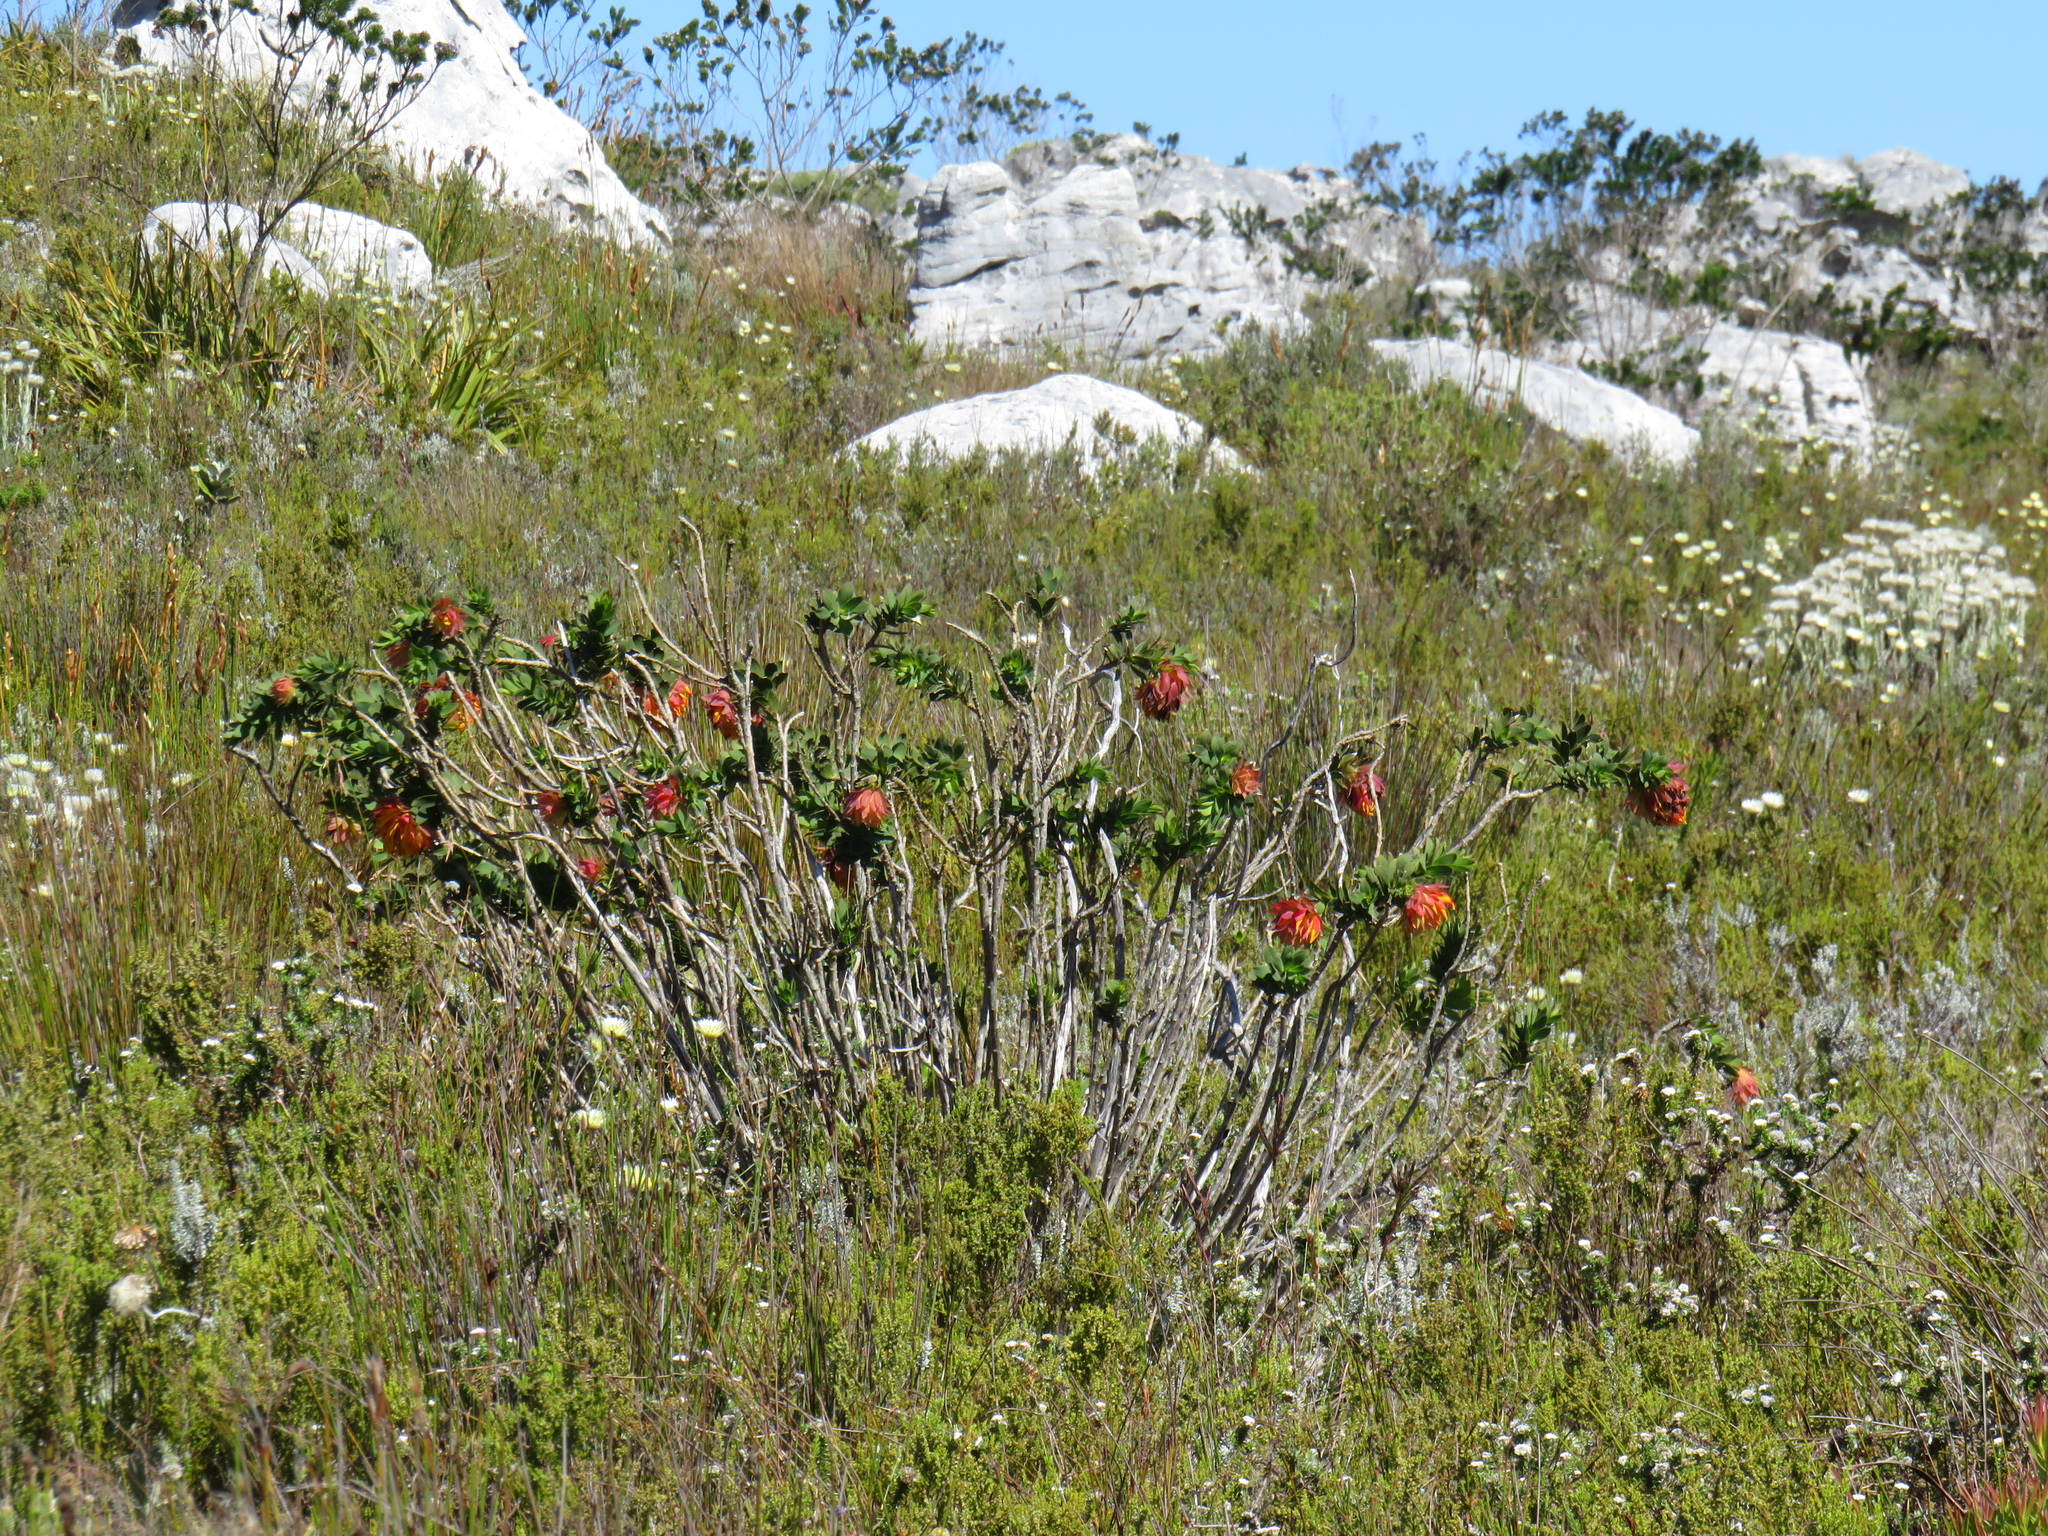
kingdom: Plantae
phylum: Tracheophyta
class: Magnoliopsida
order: Fabales
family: Fabaceae
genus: Liparia
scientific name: Liparia splendens
